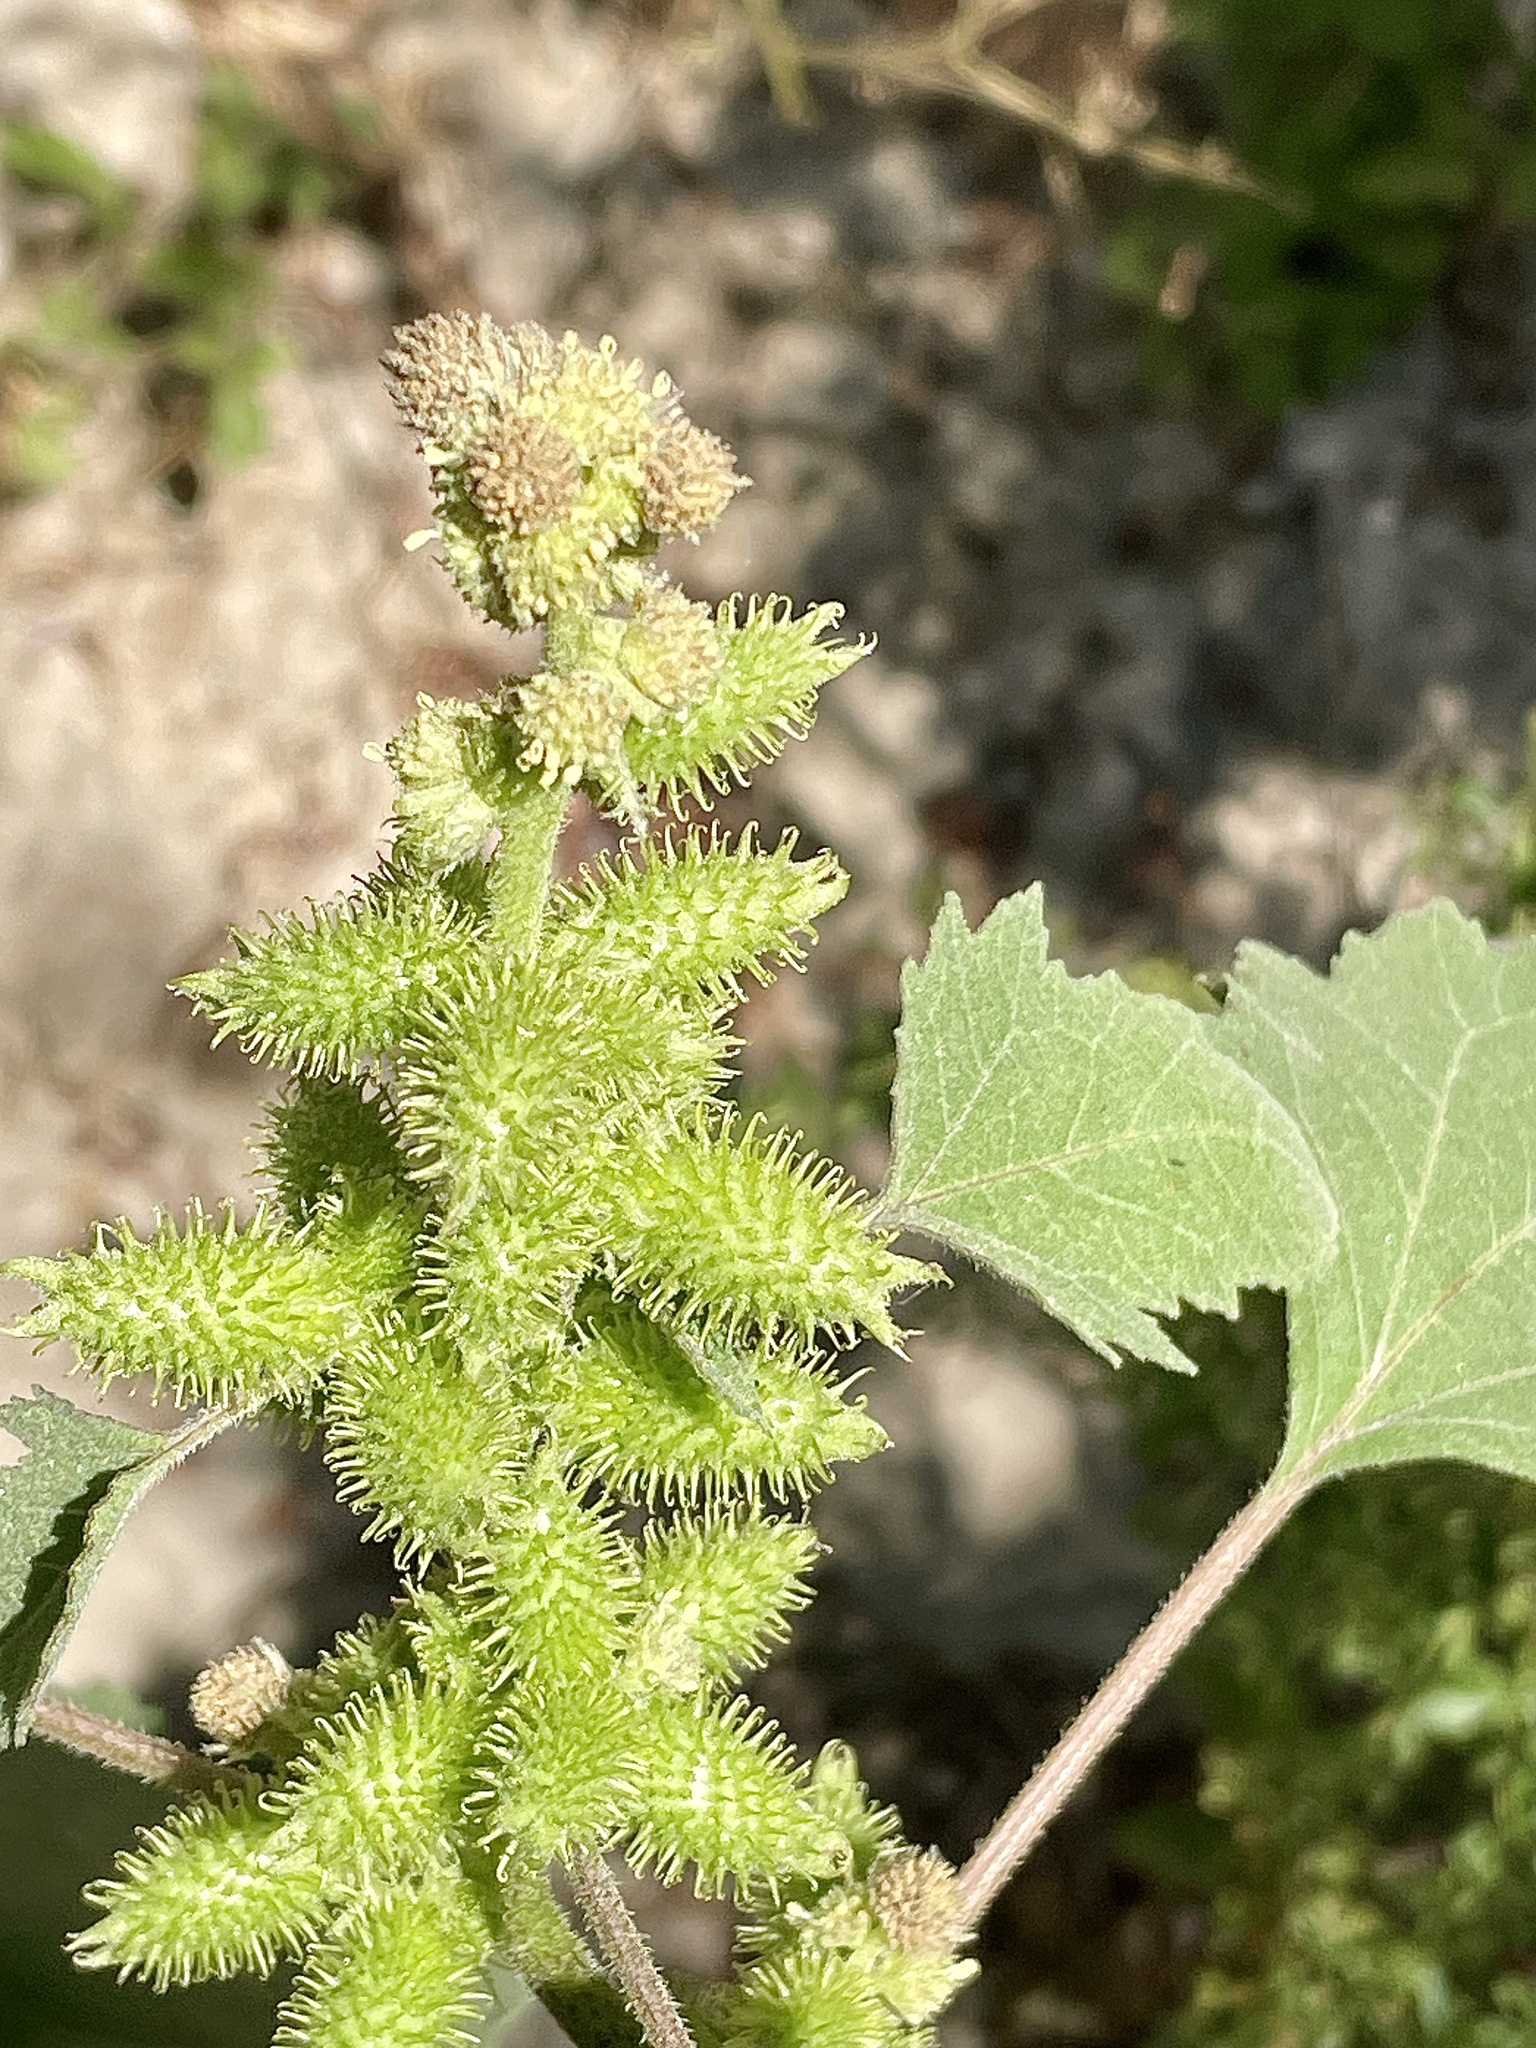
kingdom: Plantae
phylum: Tracheophyta
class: Magnoliopsida
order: Asterales
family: Asteraceae
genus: Xanthium
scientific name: Xanthium orientale
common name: Californian burr
